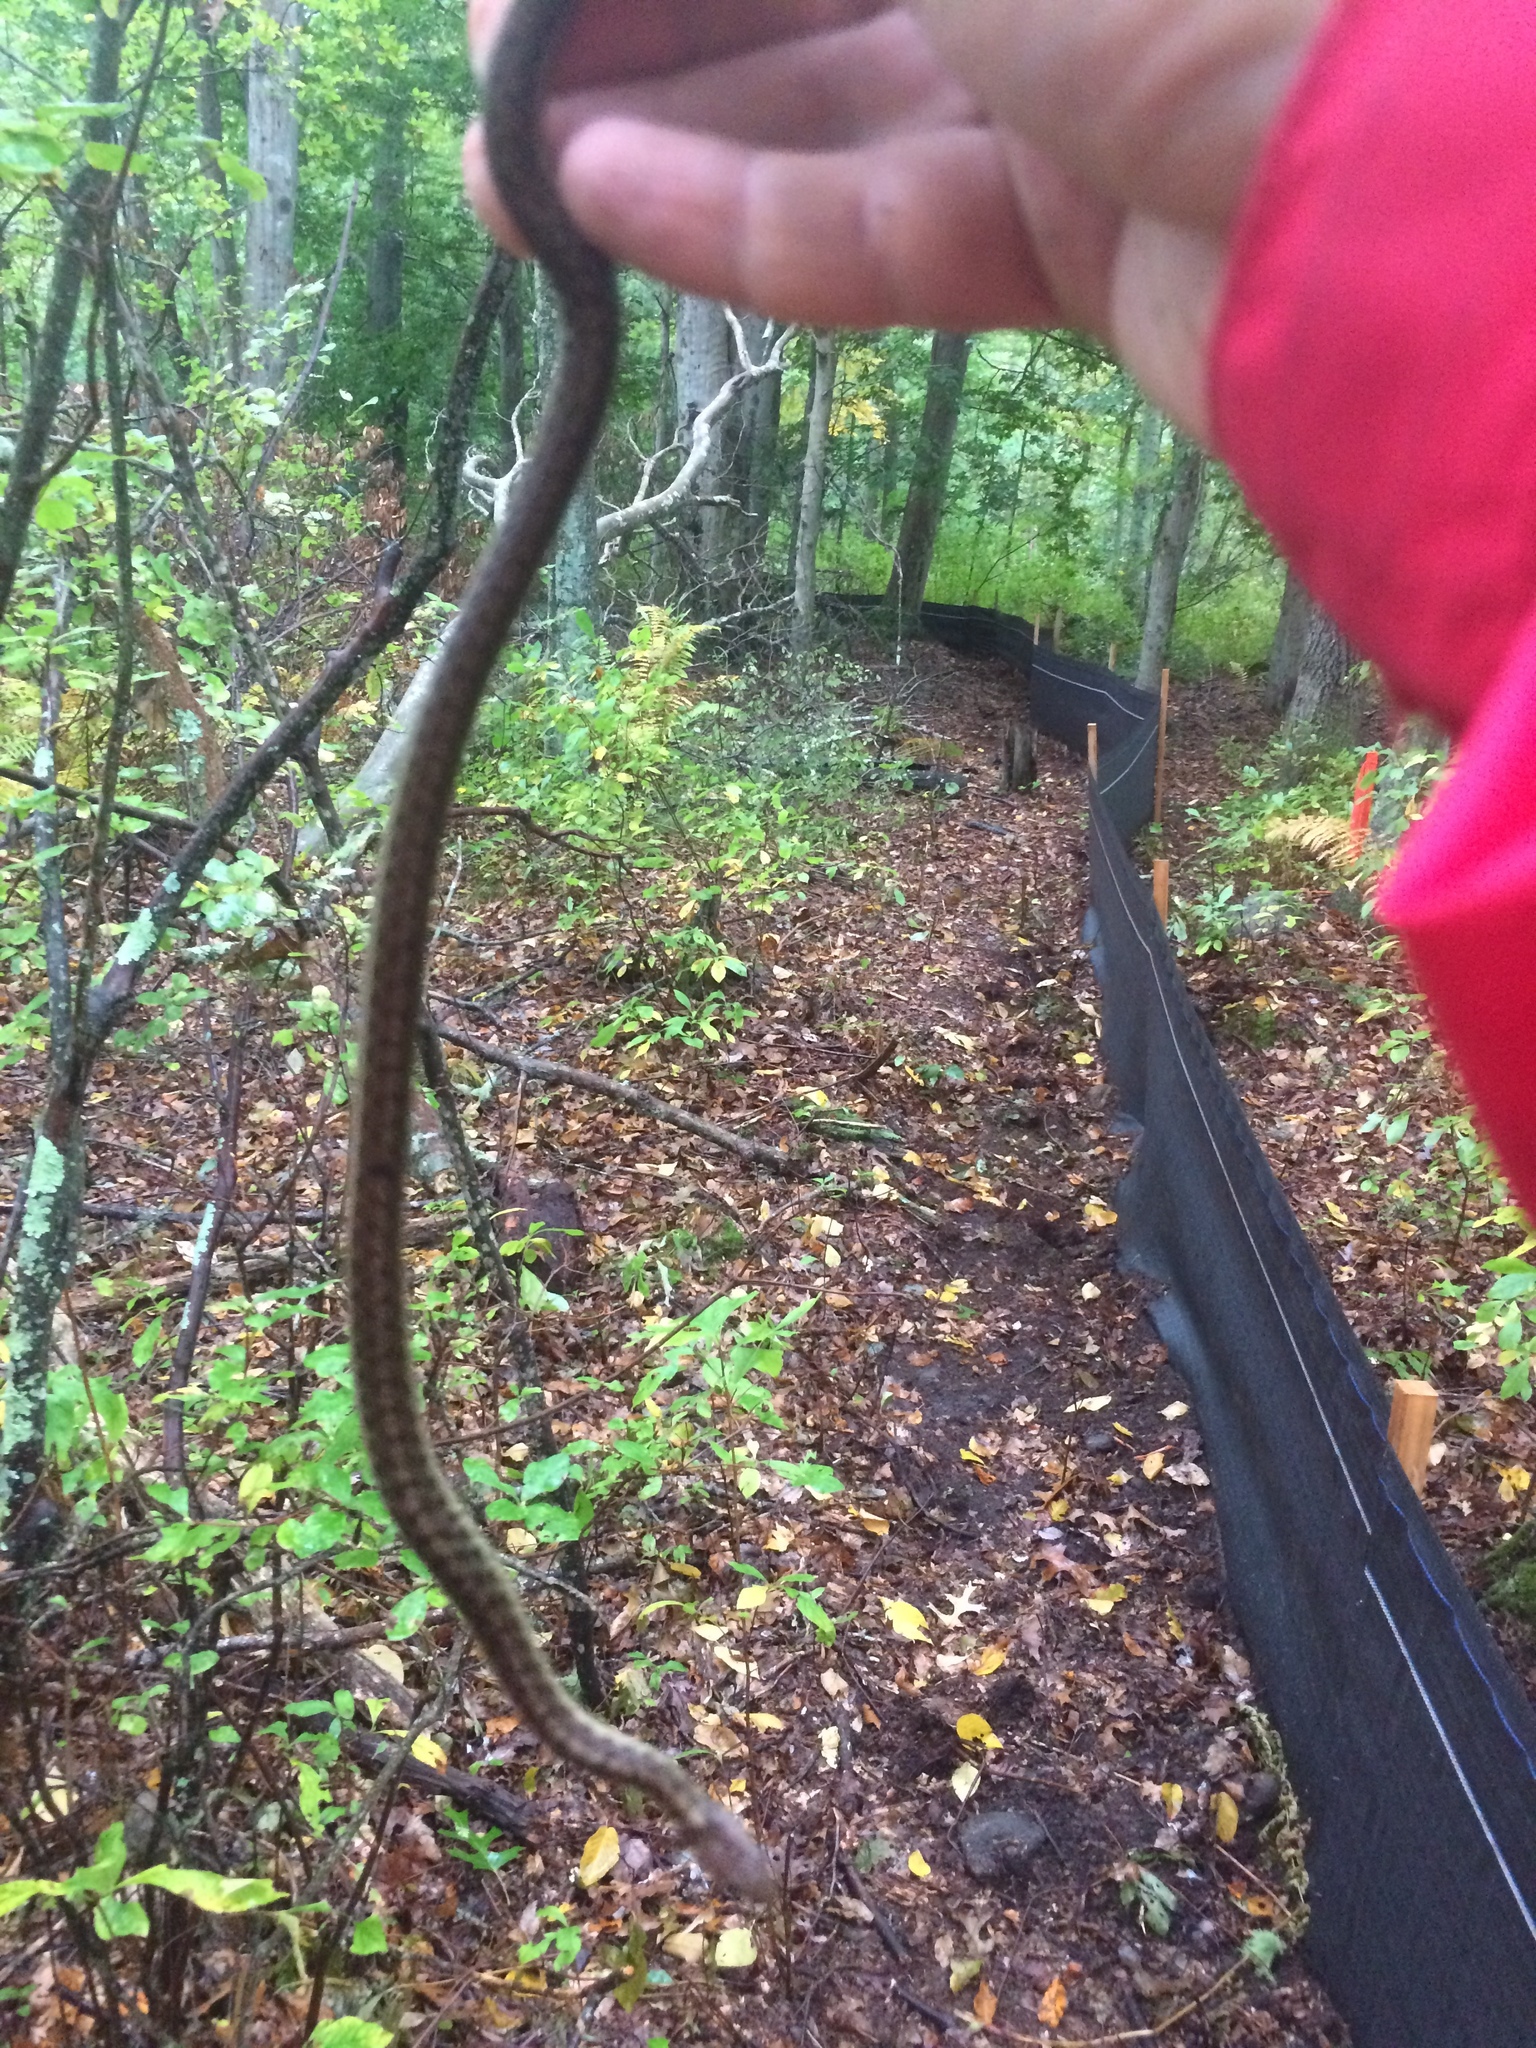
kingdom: Animalia
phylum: Chordata
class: Squamata
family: Colubridae
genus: Thamnophis
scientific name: Thamnophis sirtalis
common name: Common garter snake
